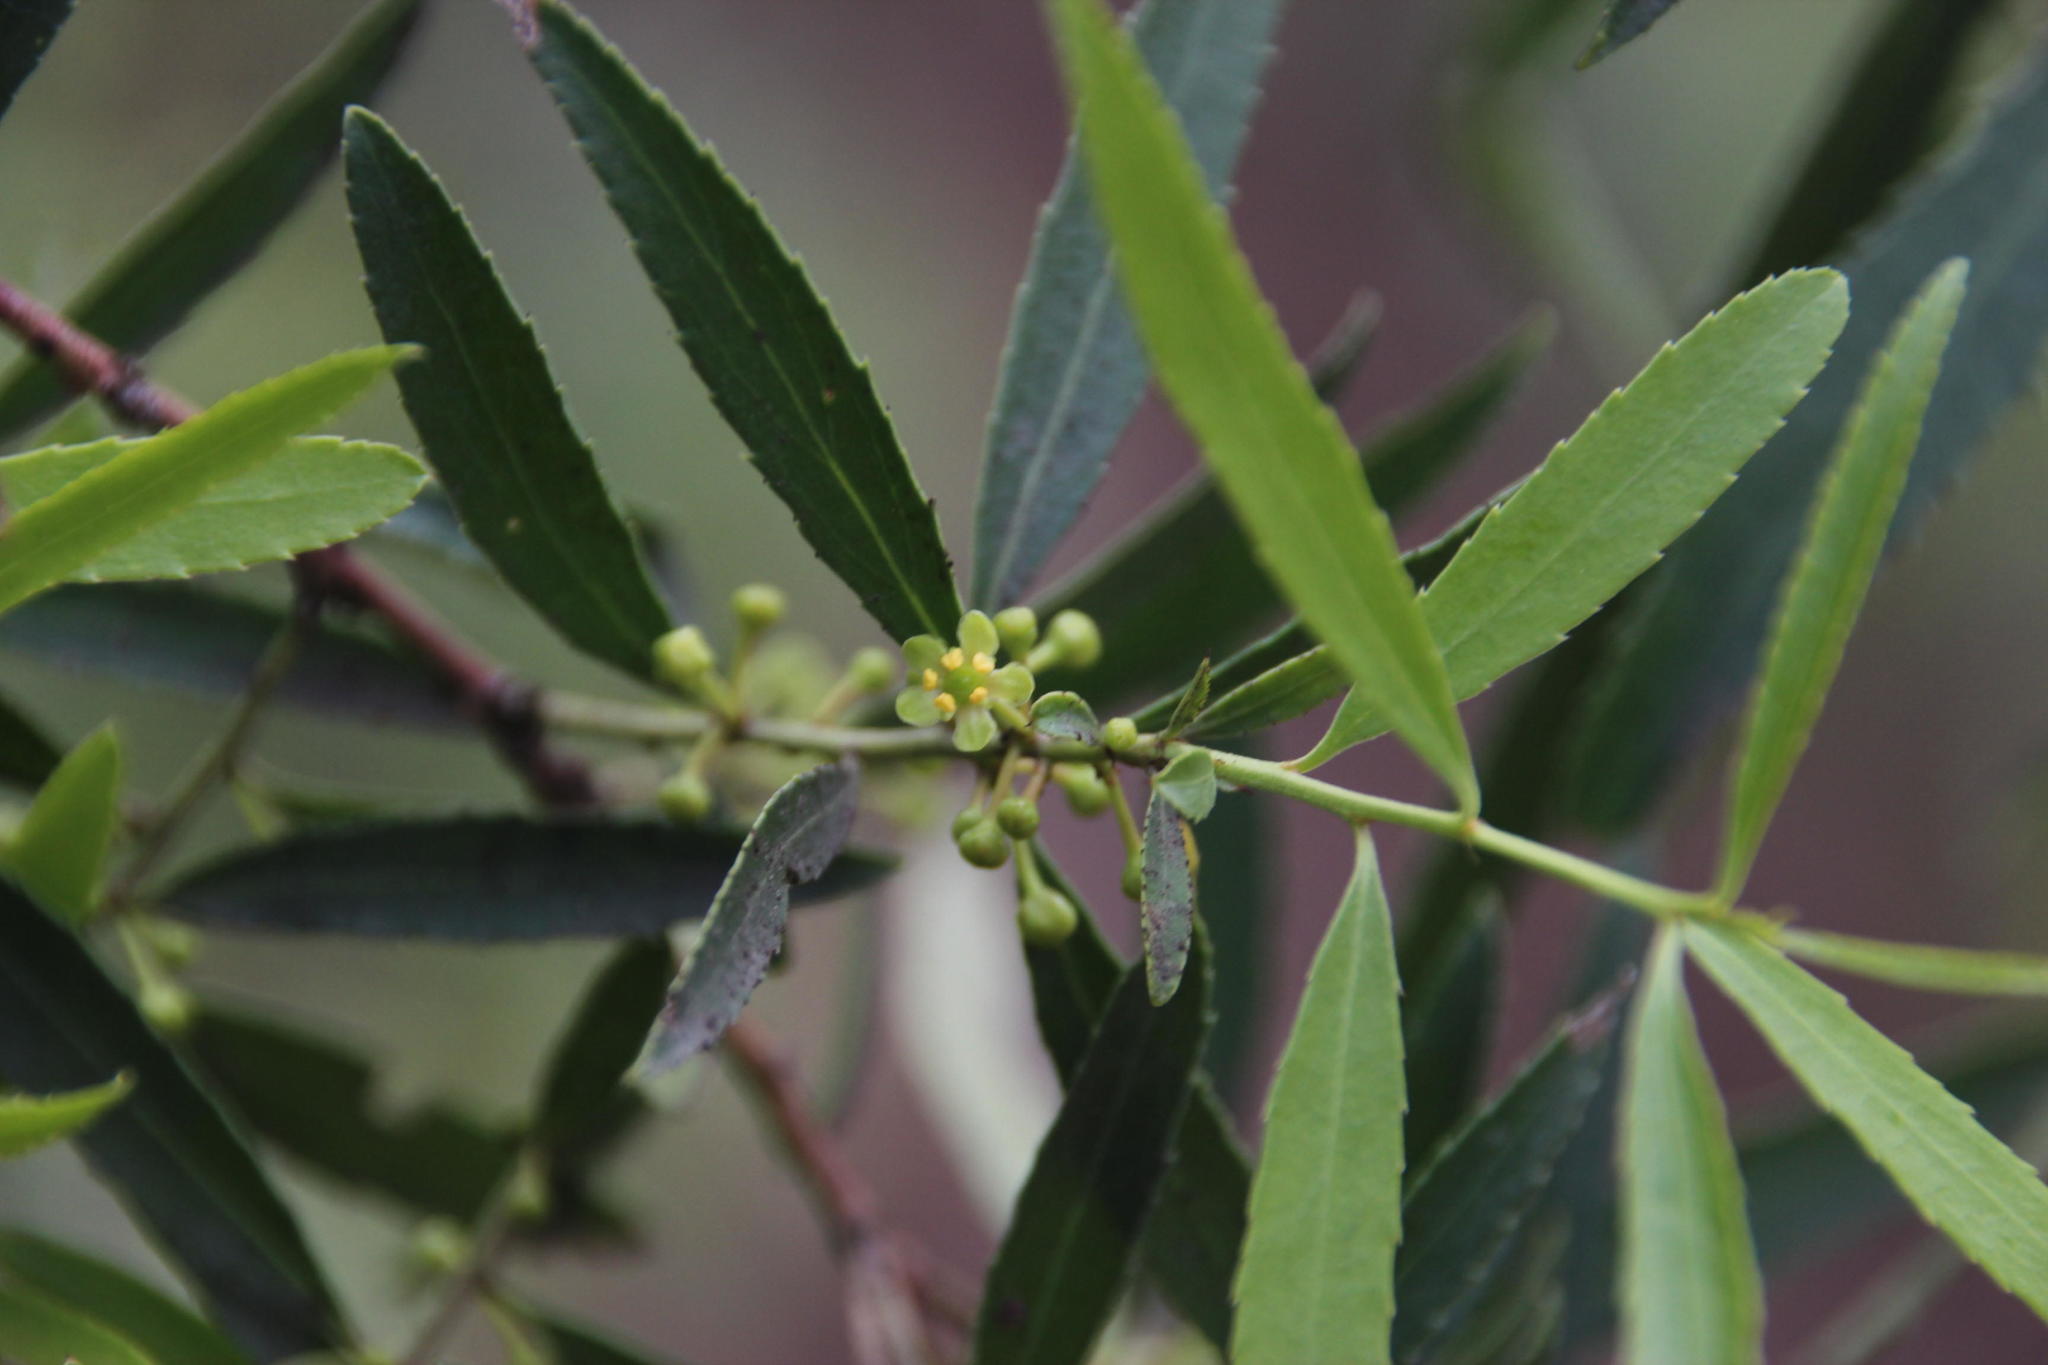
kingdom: Plantae
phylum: Tracheophyta
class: Magnoliopsida
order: Celastrales
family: Celastraceae
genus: Maytenus
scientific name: Maytenus boaria
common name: Mayten
